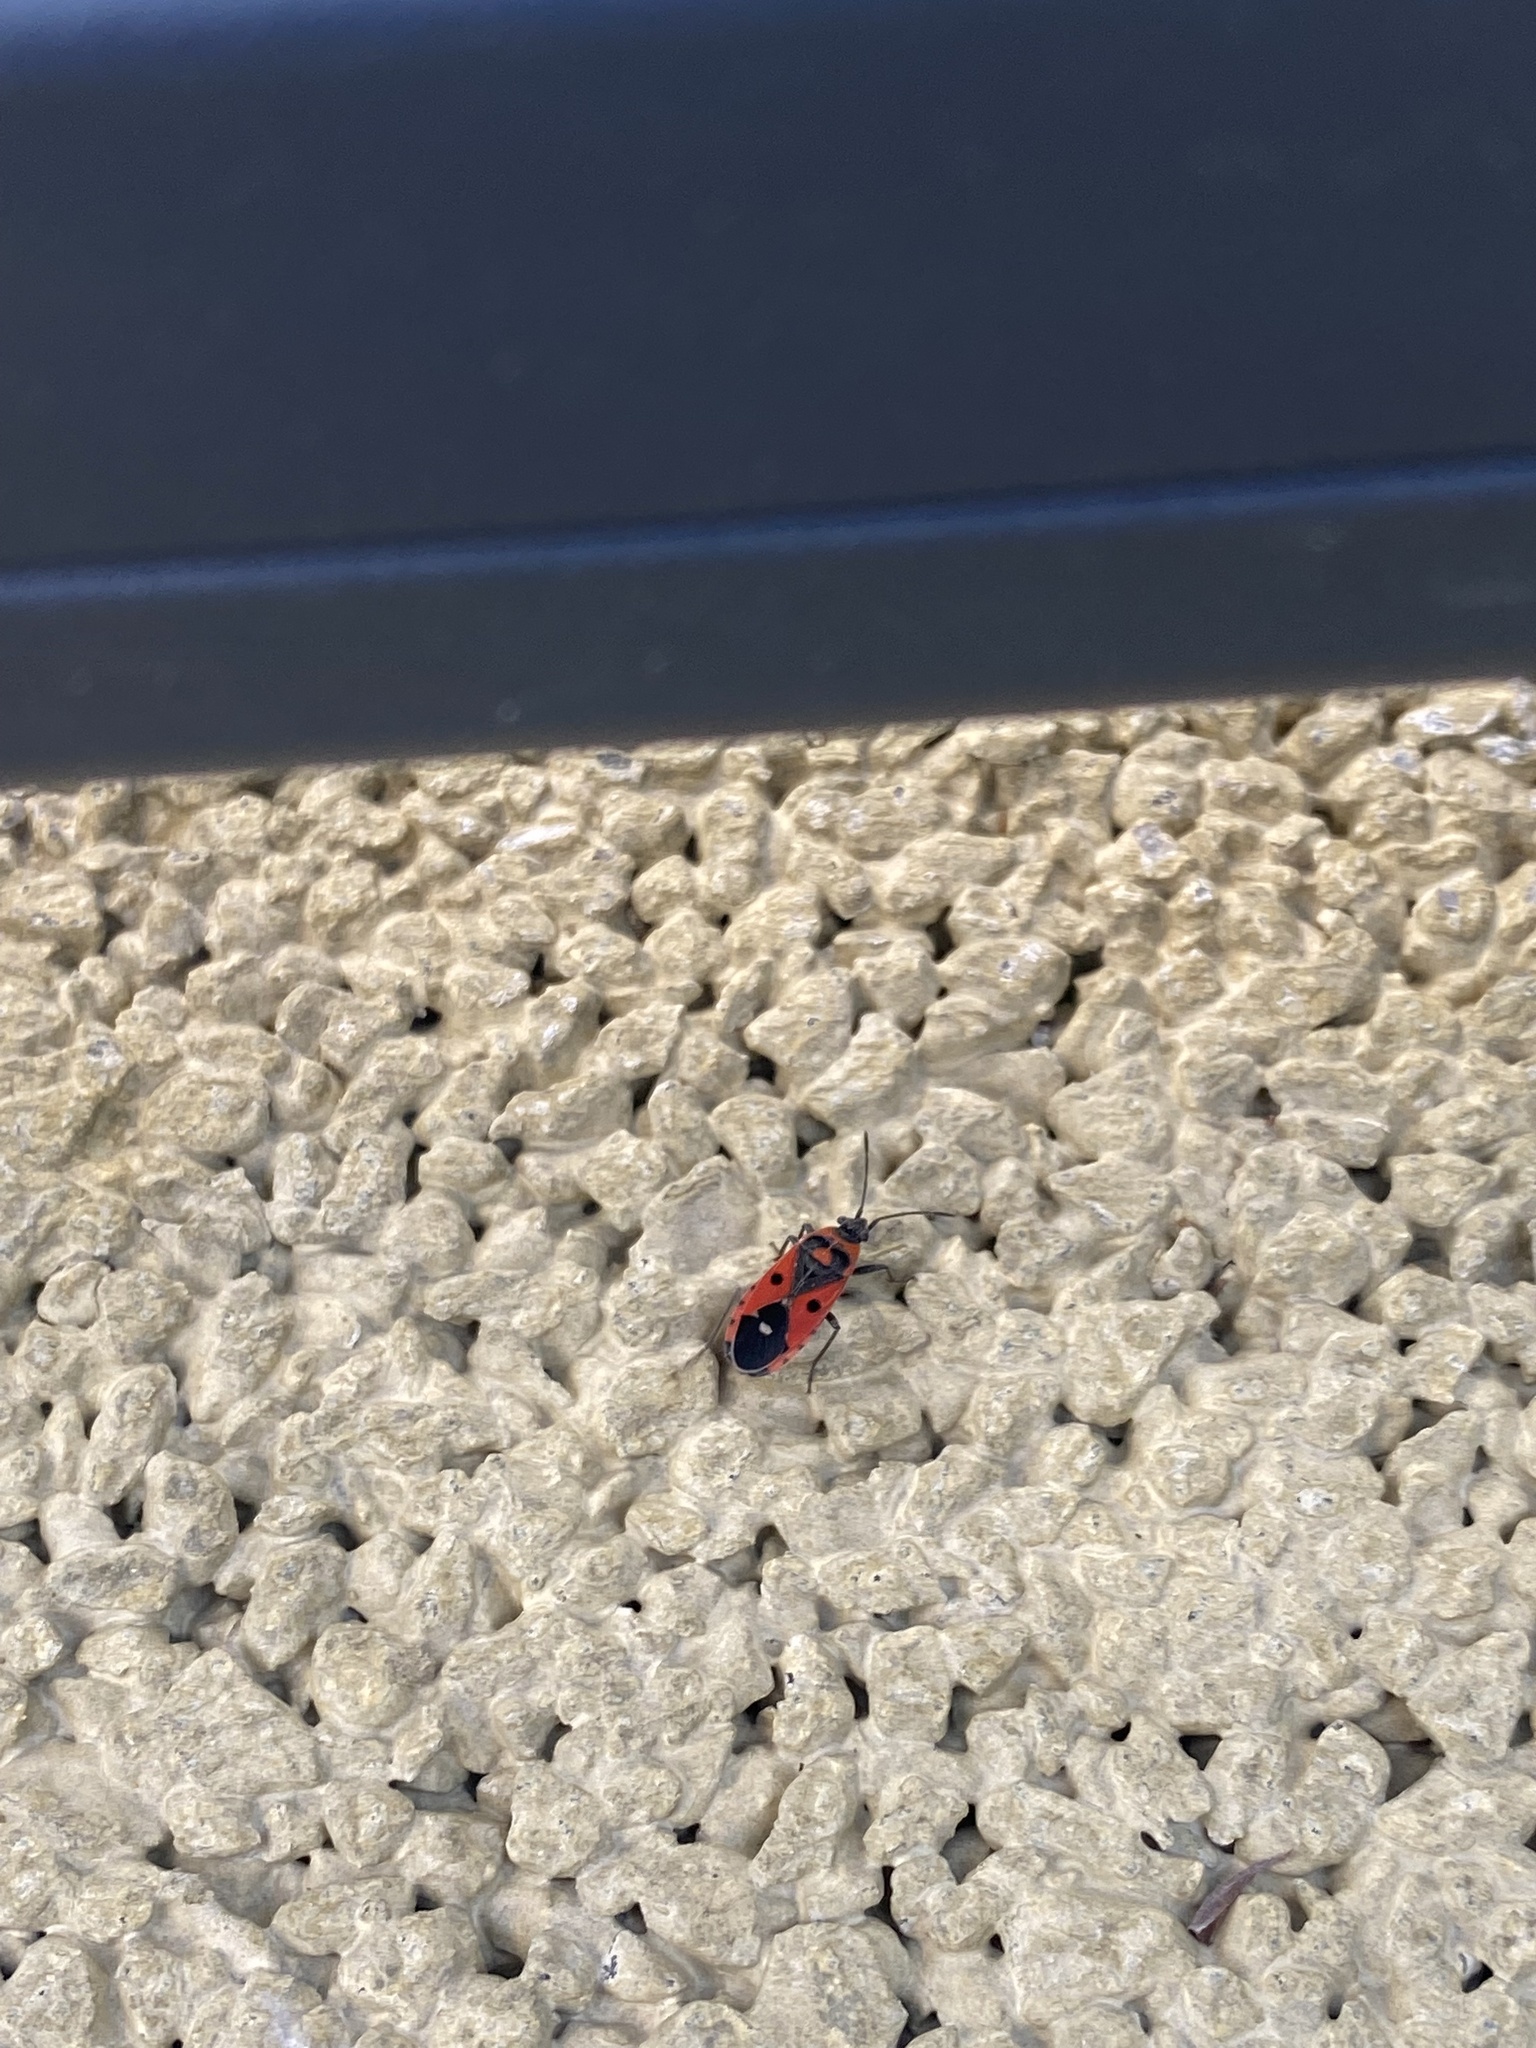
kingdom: Animalia
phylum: Arthropoda
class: Insecta
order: Hemiptera
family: Lygaeidae
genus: Melanocoryphus
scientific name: Melanocoryphus albomaculatus
